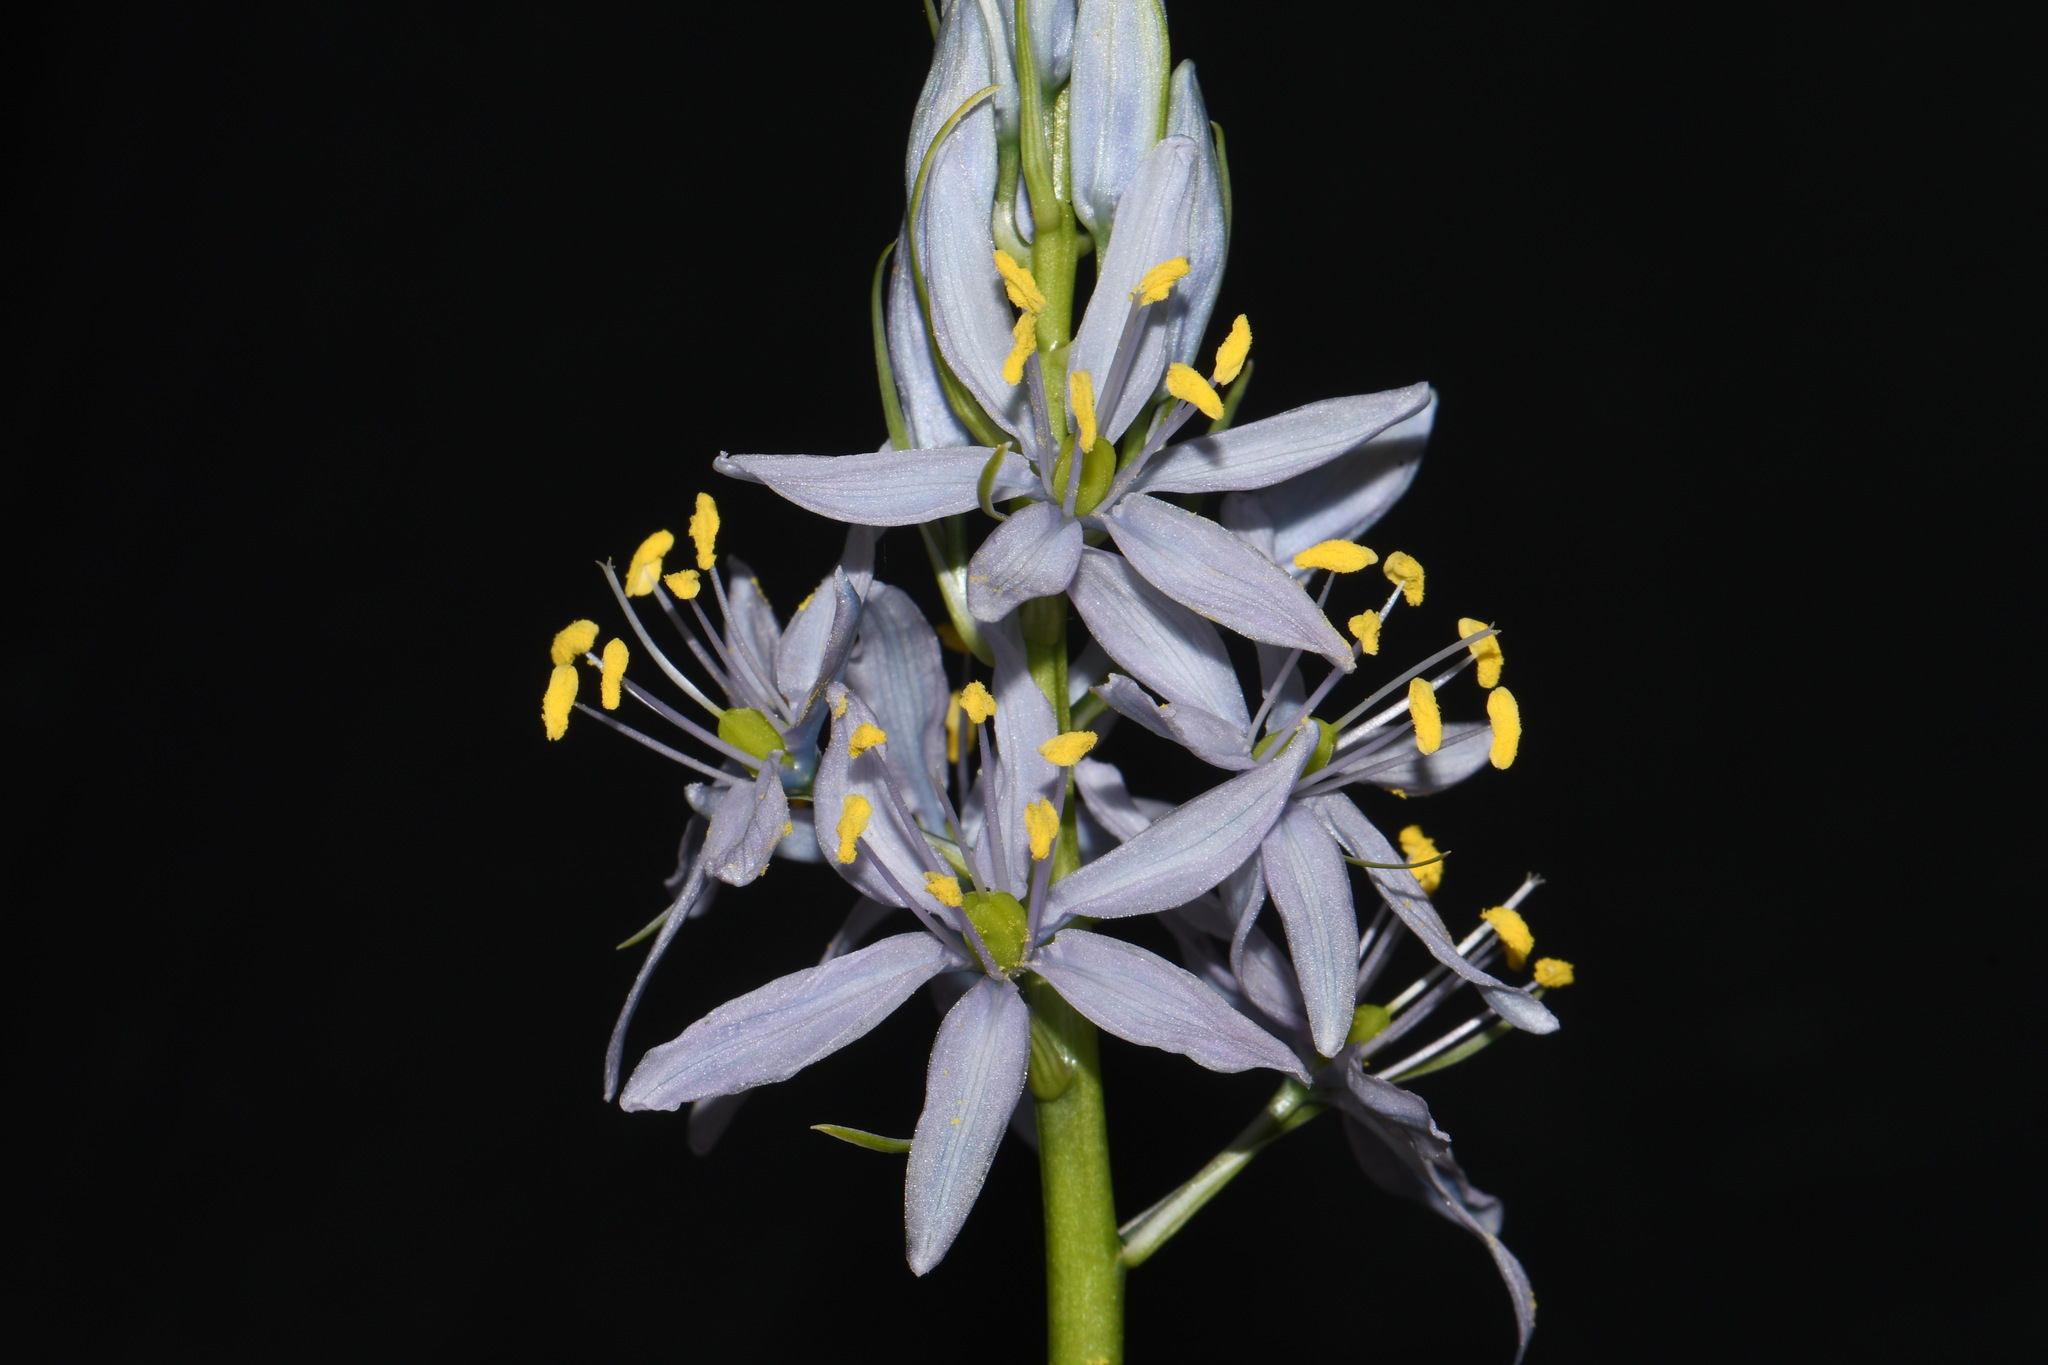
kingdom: Plantae
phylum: Tracheophyta
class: Liliopsida
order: Asparagales
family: Asparagaceae
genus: Camassia
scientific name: Camassia scilloides
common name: Wild hyacinth
